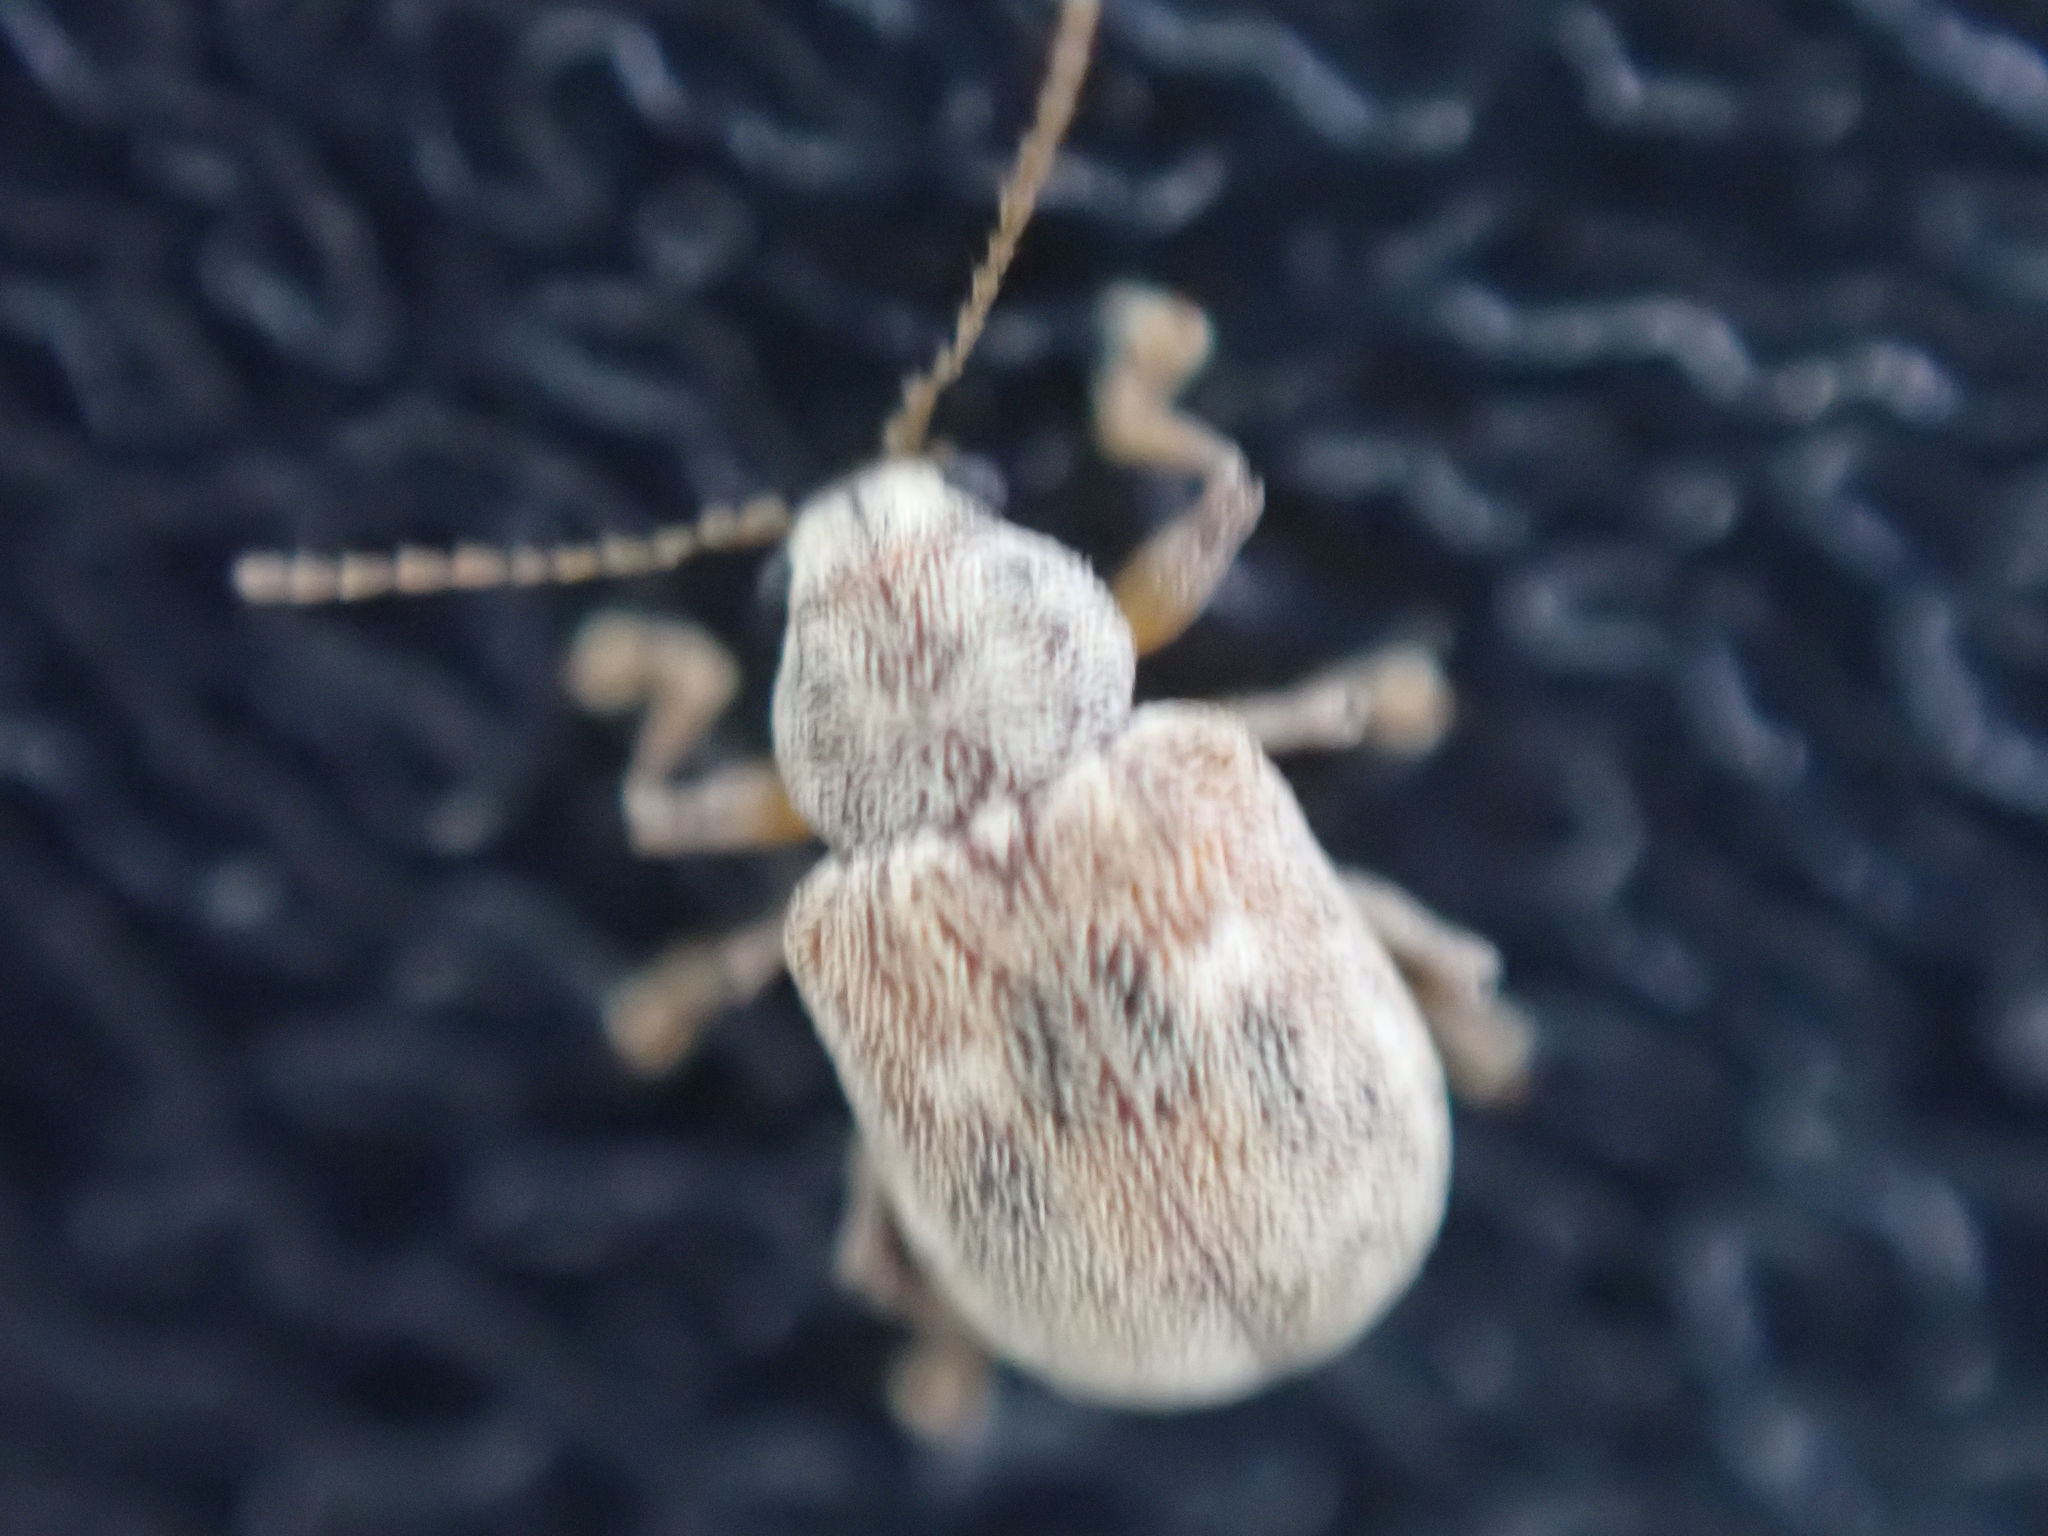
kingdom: Animalia
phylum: Arthropoda
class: Insecta
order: Coleoptera
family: Chrysomelidae
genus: Demotina
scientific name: Demotina modesta
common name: Leaf beetle
